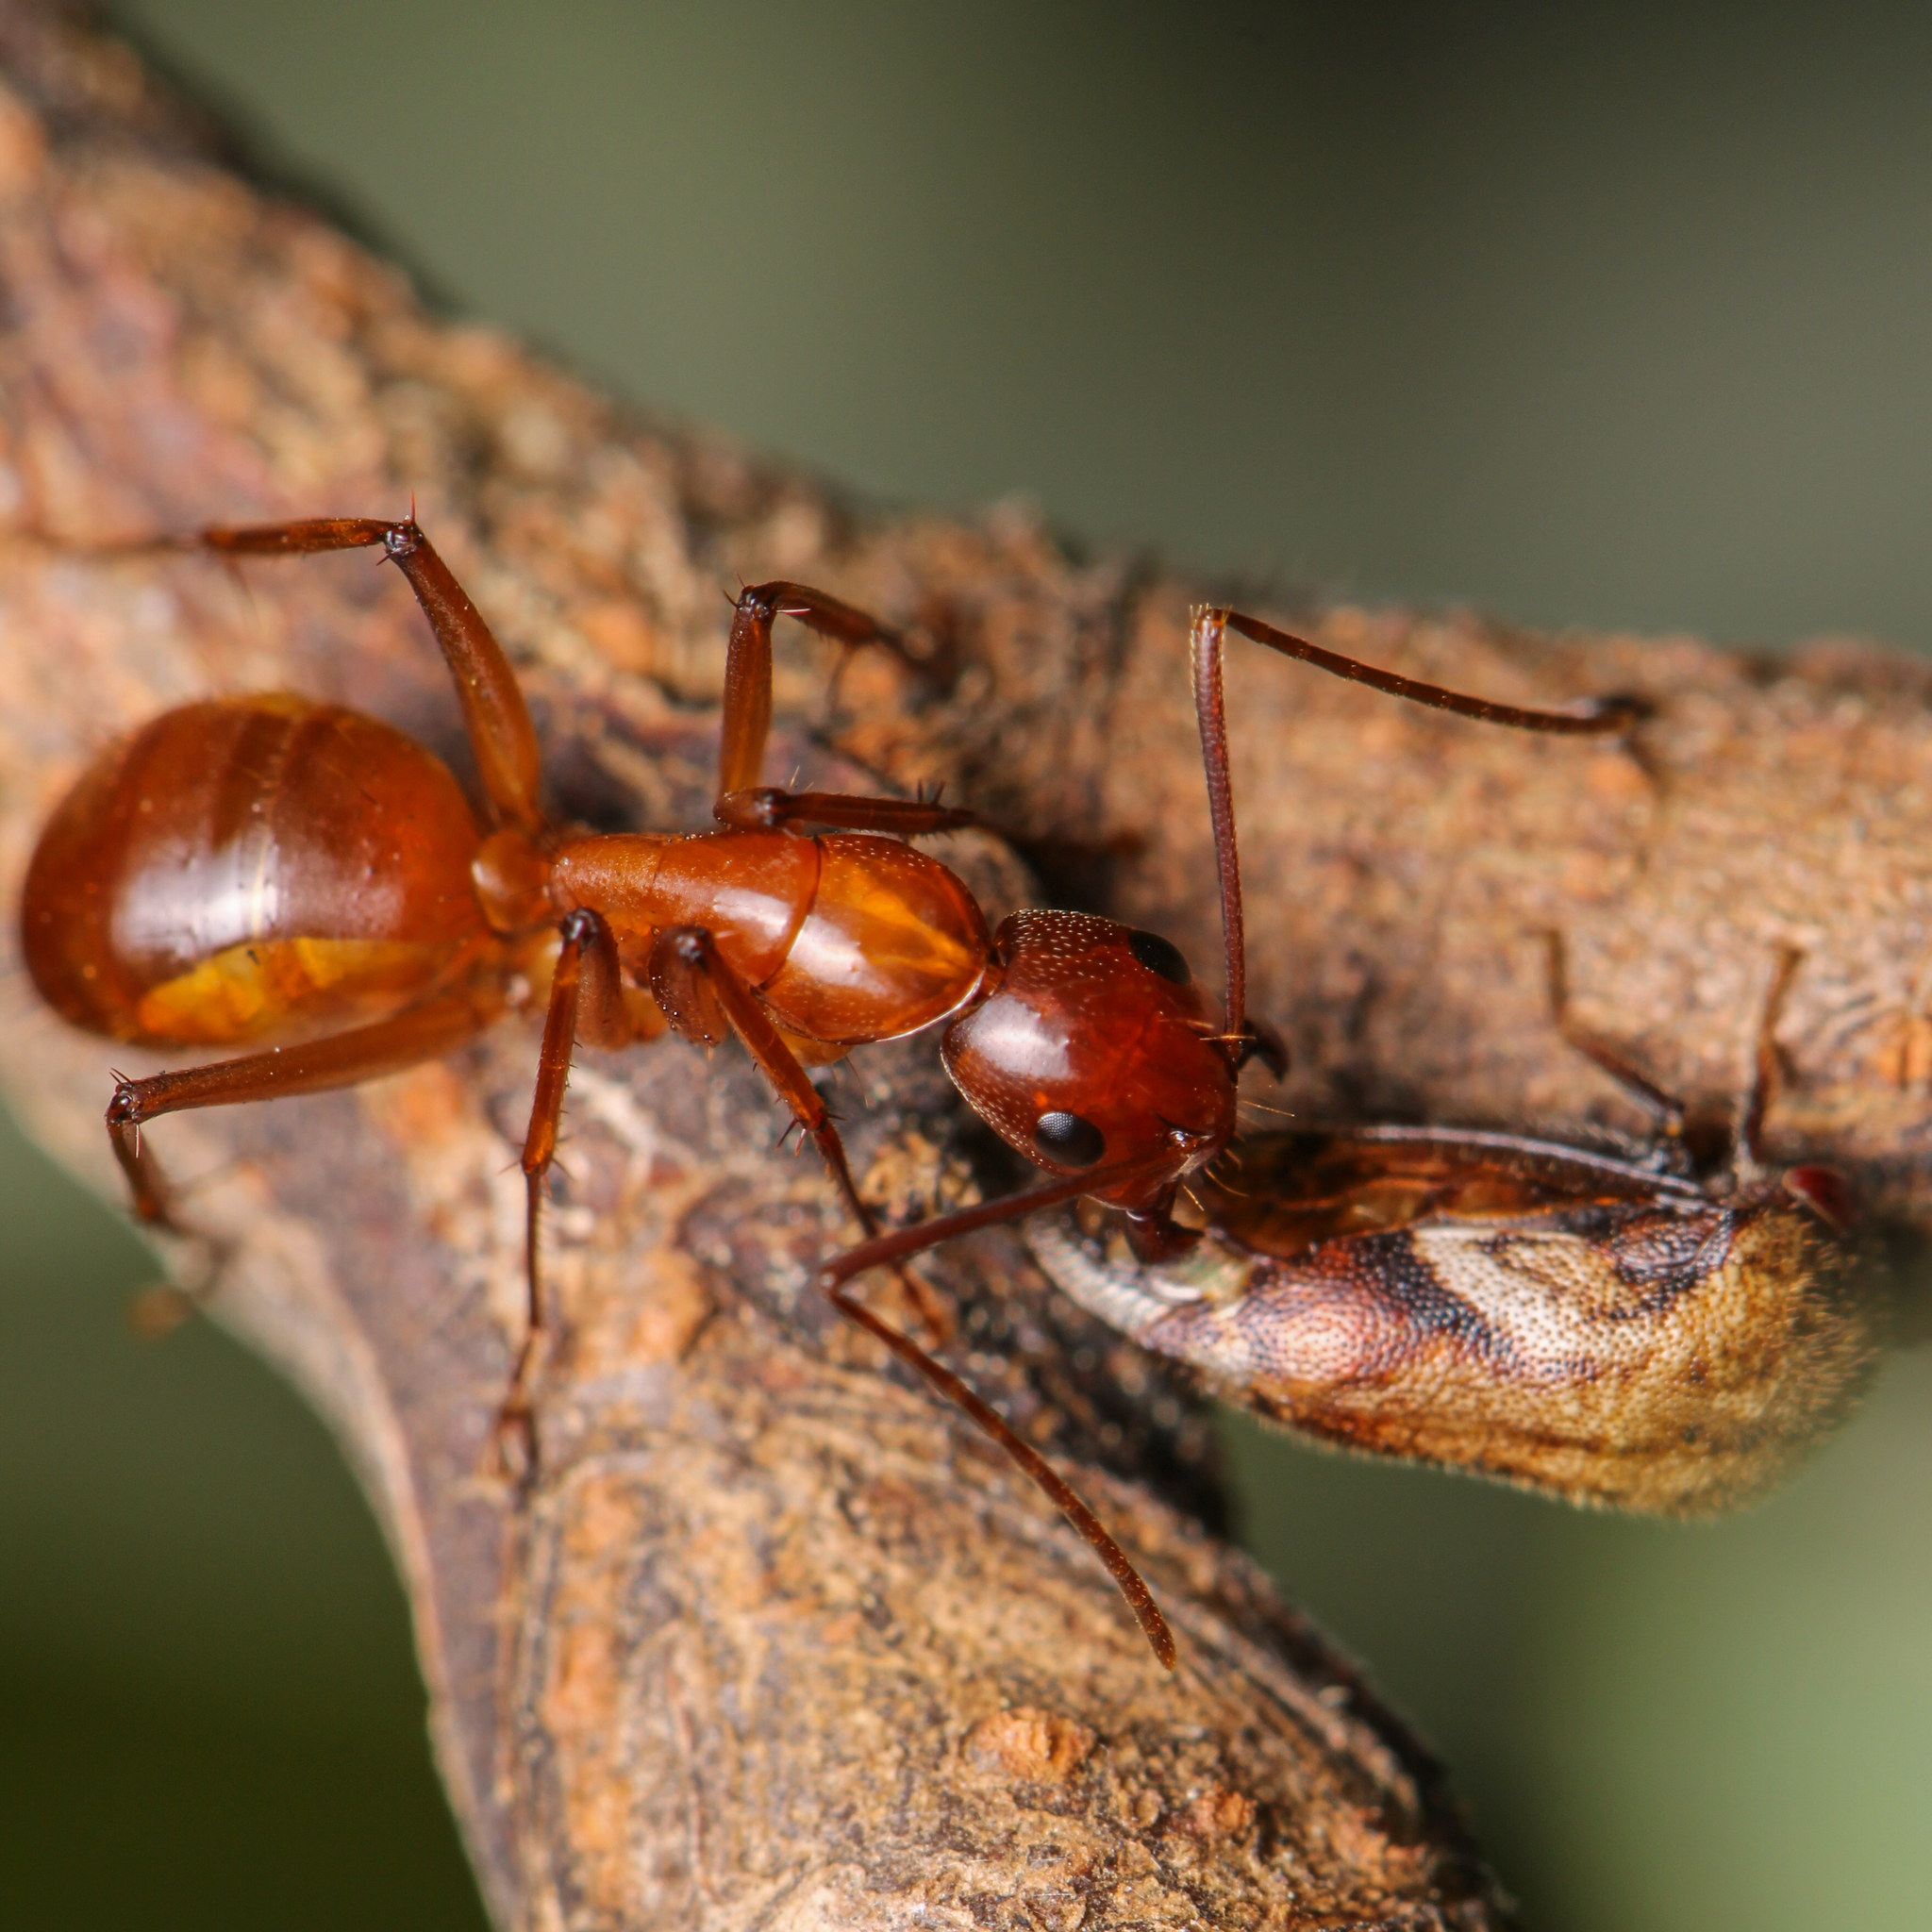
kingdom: Animalia
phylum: Arthropoda
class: Insecta
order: Hymenoptera
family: Formicidae
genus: Camponotus
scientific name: Camponotus castaneus
